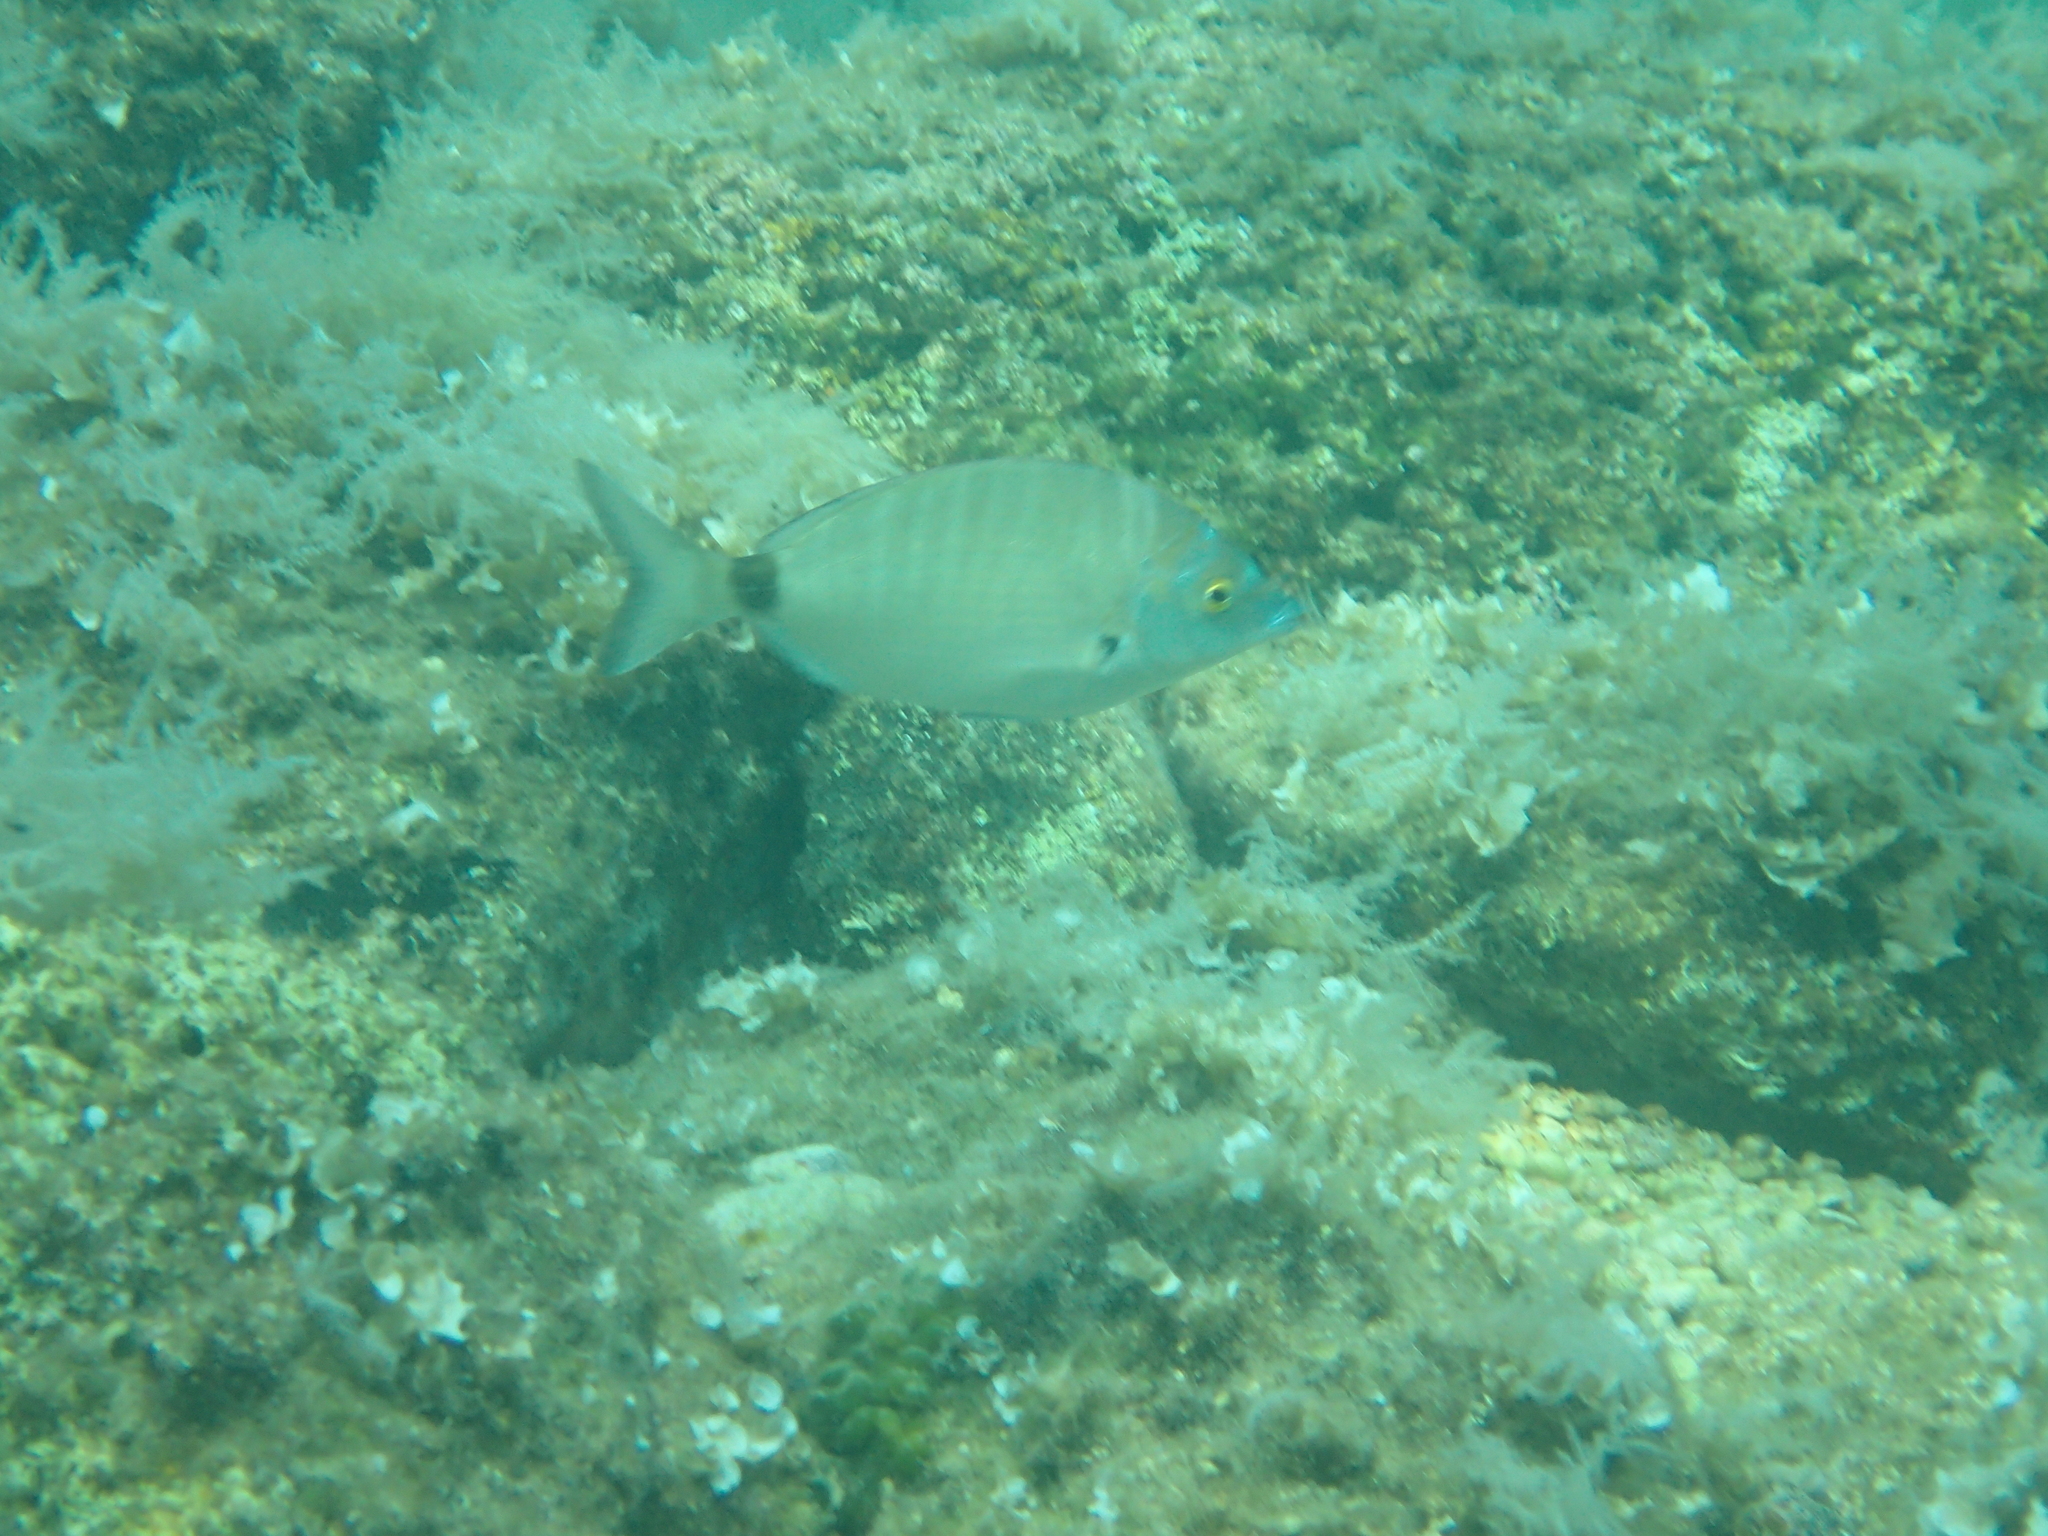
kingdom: Animalia
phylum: Chordata
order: Perciformes
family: Sparidae
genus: Diplodus
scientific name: Diplodus puntazzo
